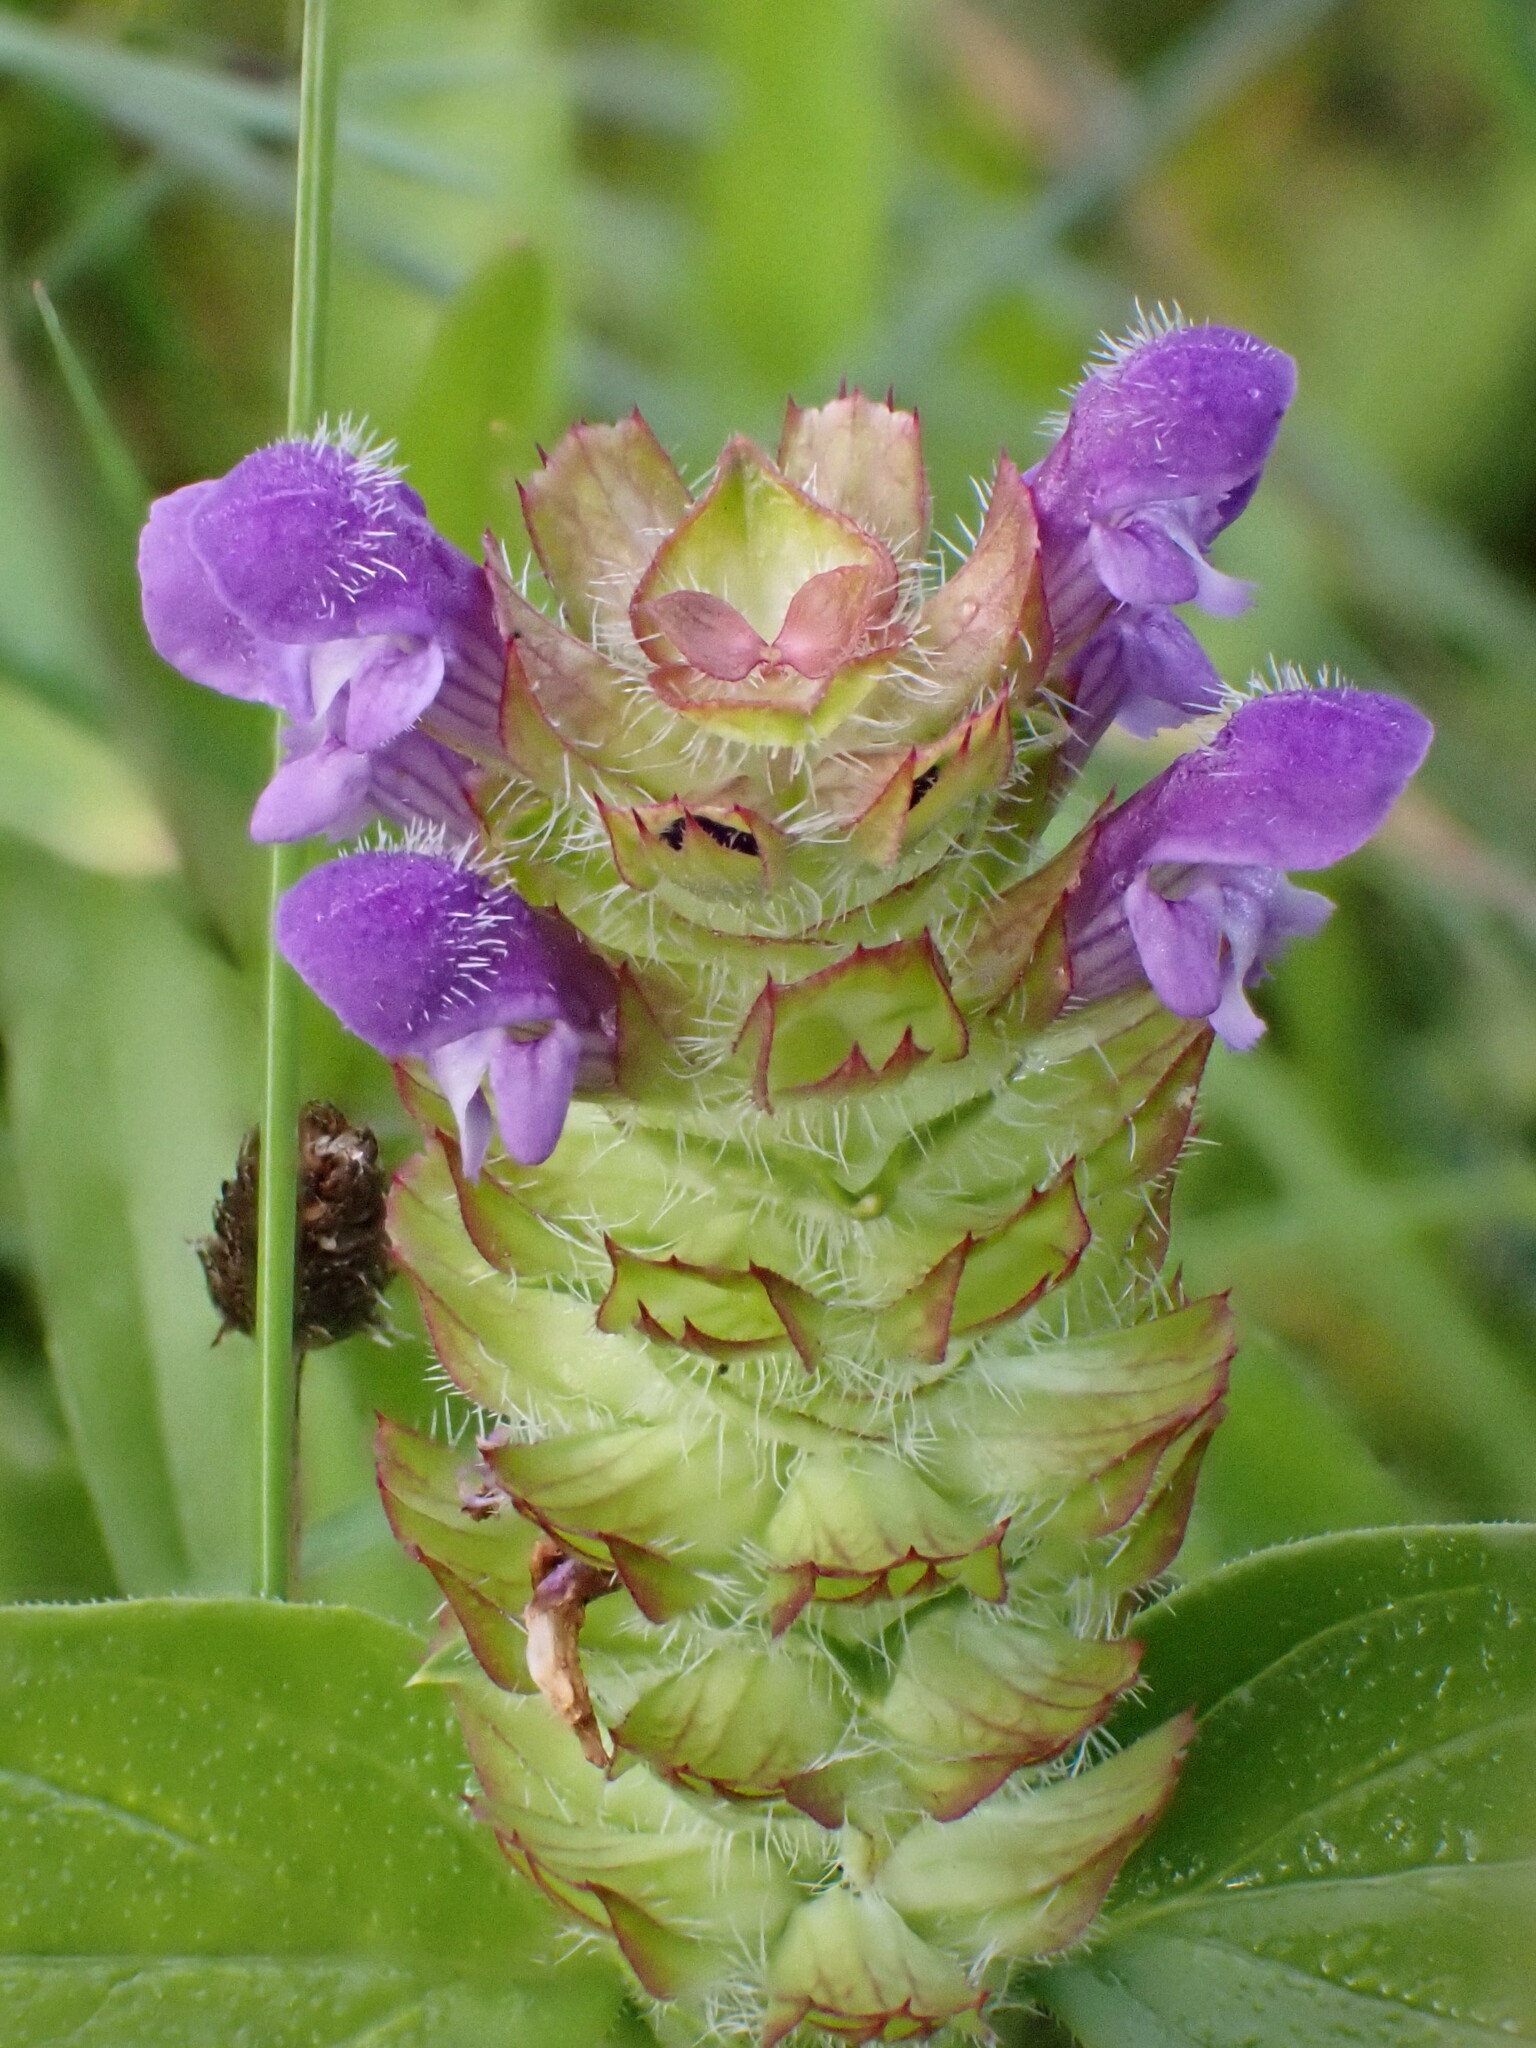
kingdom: Plantae
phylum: Tracheophyta
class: Magnoliopsida
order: Lamiales
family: Lamiaceae
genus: Prunella
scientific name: Prunella vulgaris
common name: Heal-all
